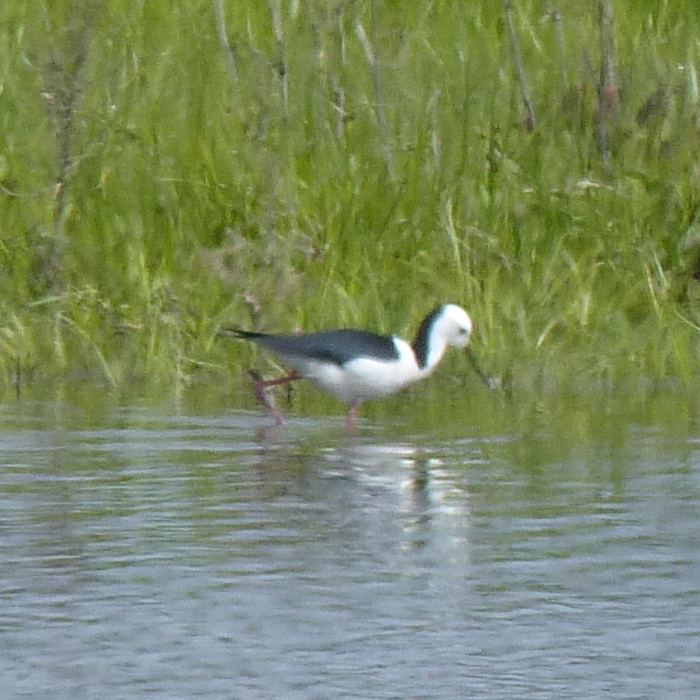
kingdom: Animalia
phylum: Chordata
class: Aves
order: Charadriiformes
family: Recurvirostridae
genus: Himantopus
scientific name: Himantopus leucocephalus
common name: White-headed stilt
